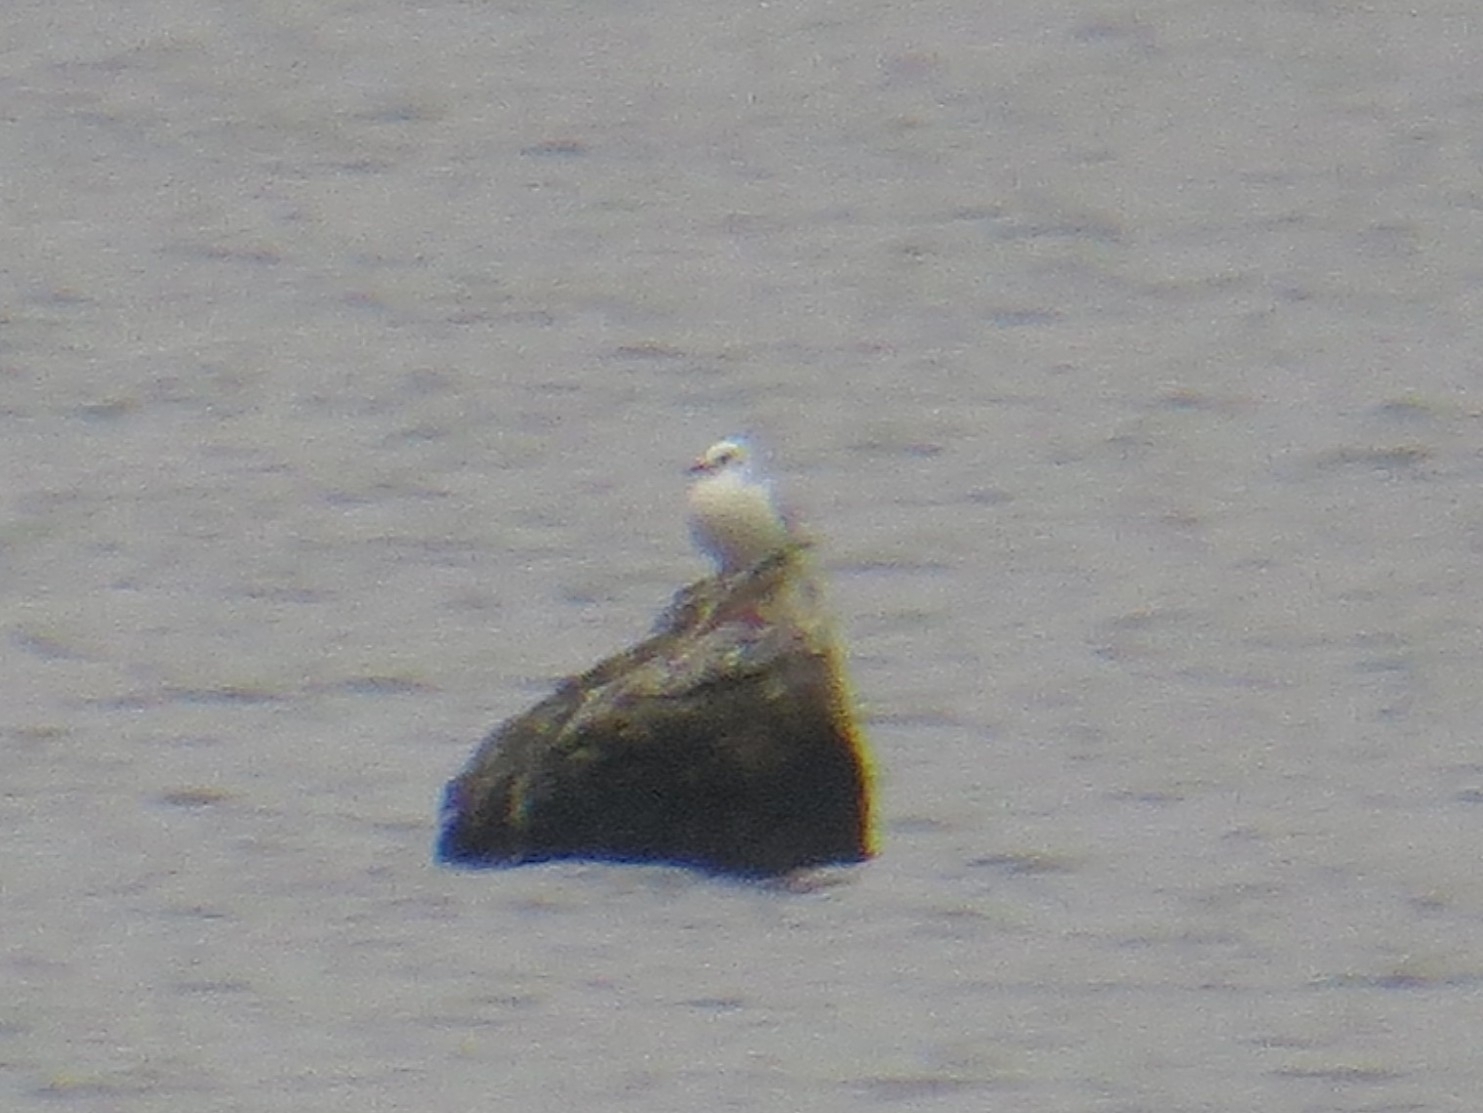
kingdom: Animalia
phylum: Chordata
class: Aves
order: Charadriiformes
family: Laridae
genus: Chroicocephalus
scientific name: Chroicocephalus ridibundus
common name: Black-headed gull
